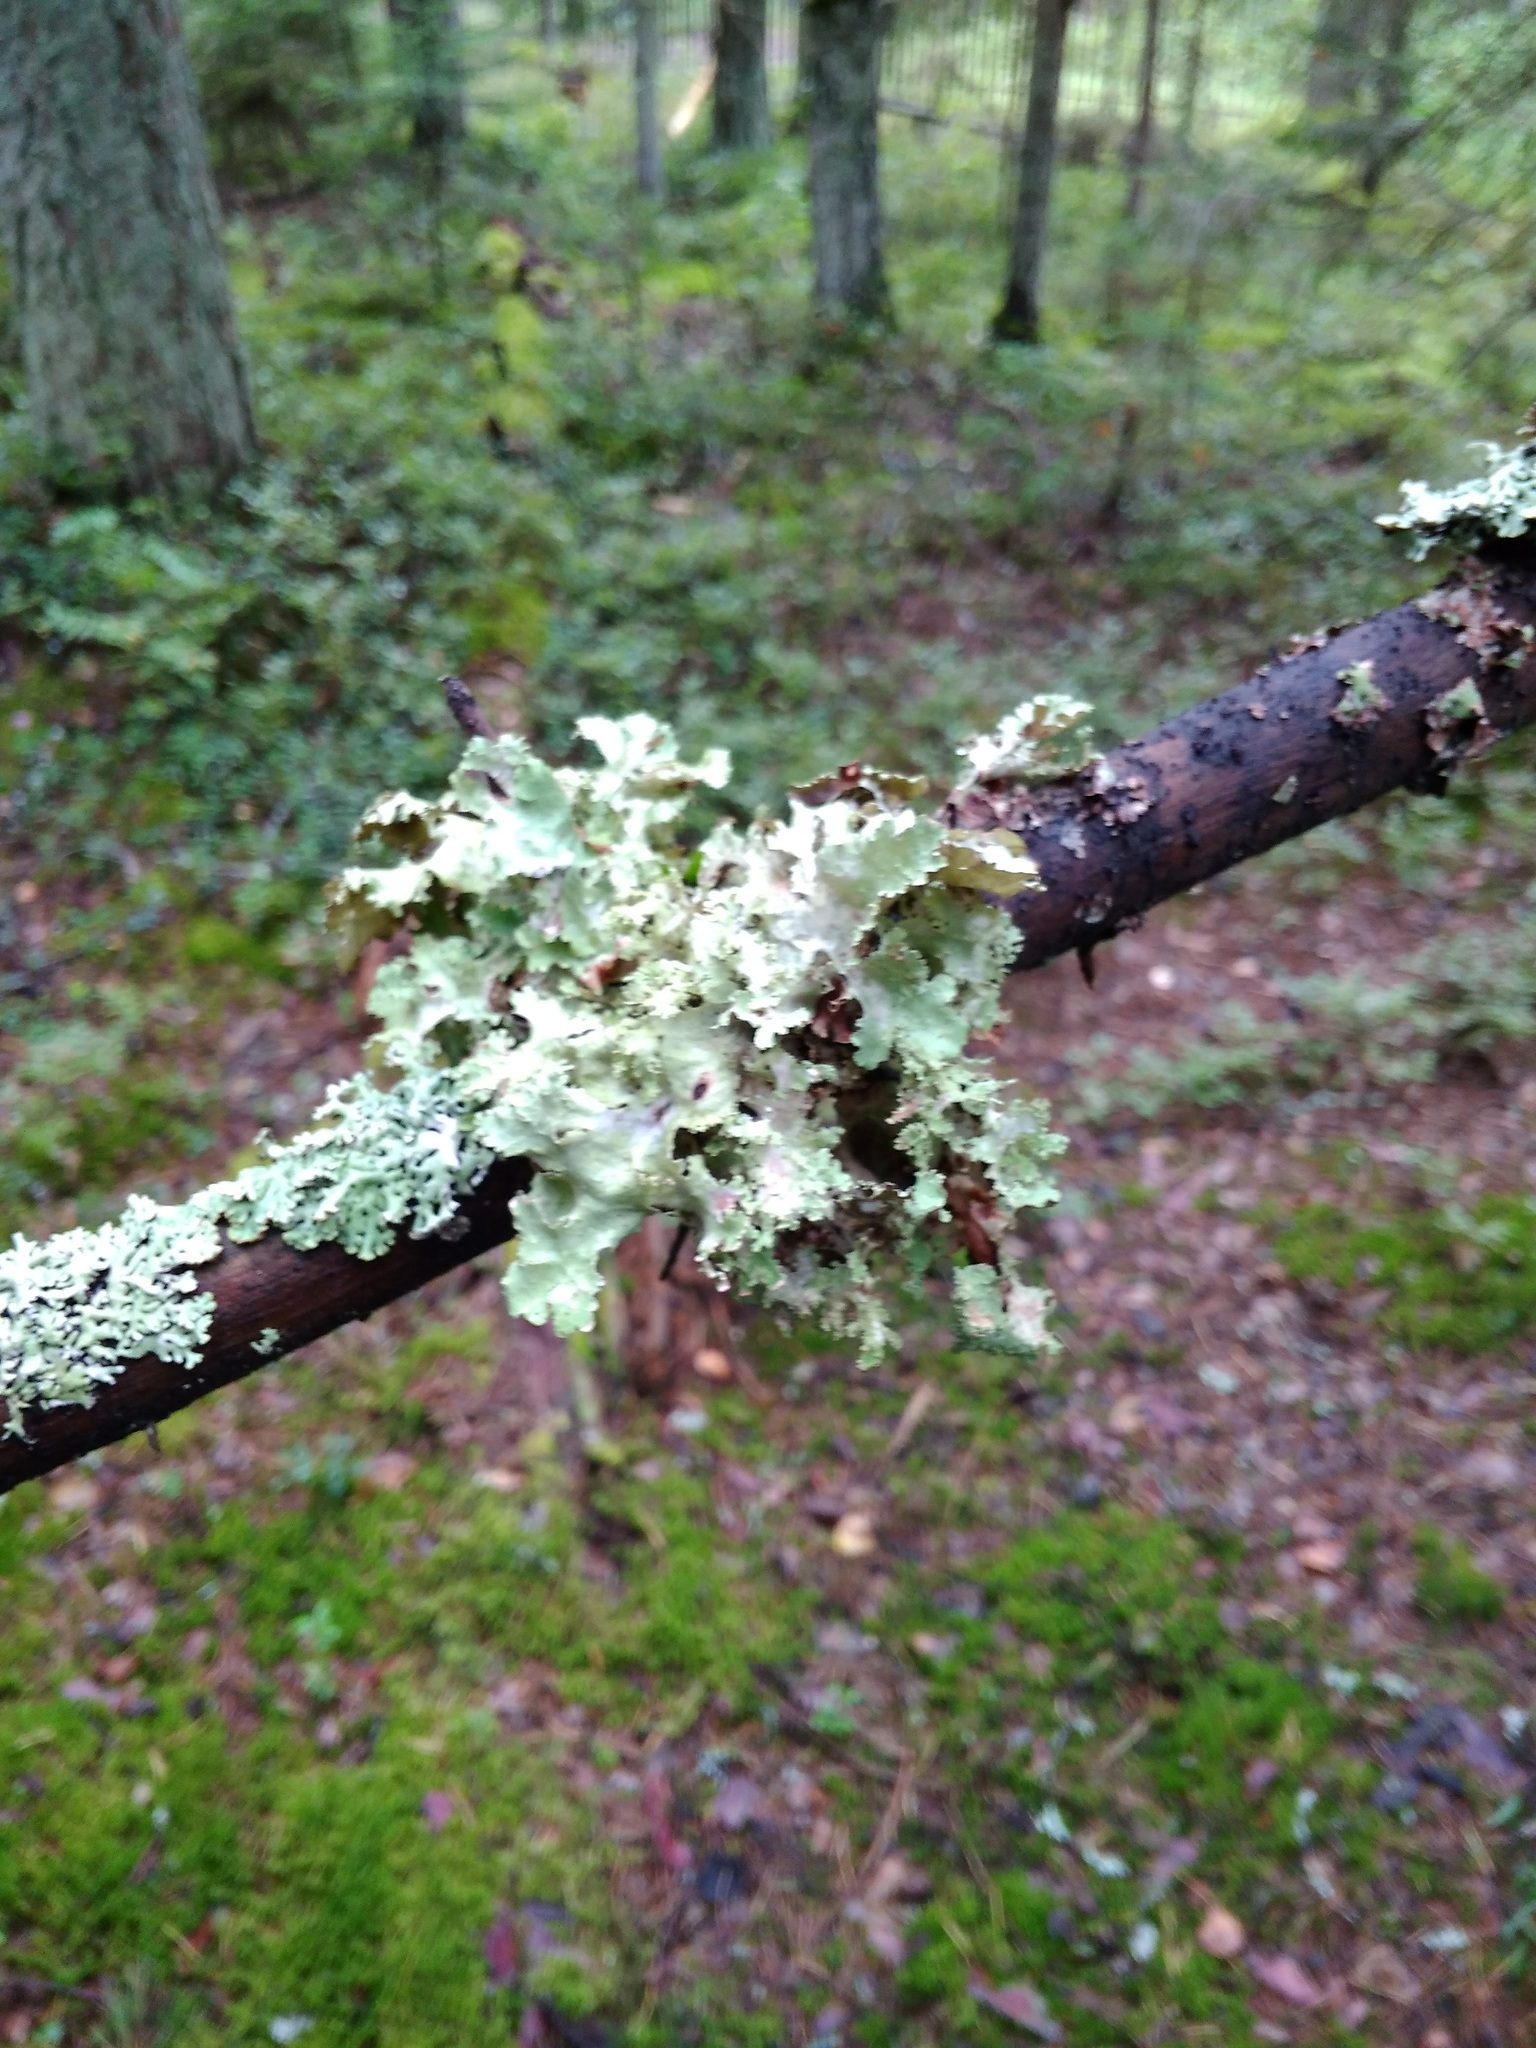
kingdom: Fungi
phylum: Ascomycota
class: Lecanoromycetes
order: Lecanorales
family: Parmeliaceae
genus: Platismatia
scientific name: Platismatia glauca
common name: Varied rag lichen
